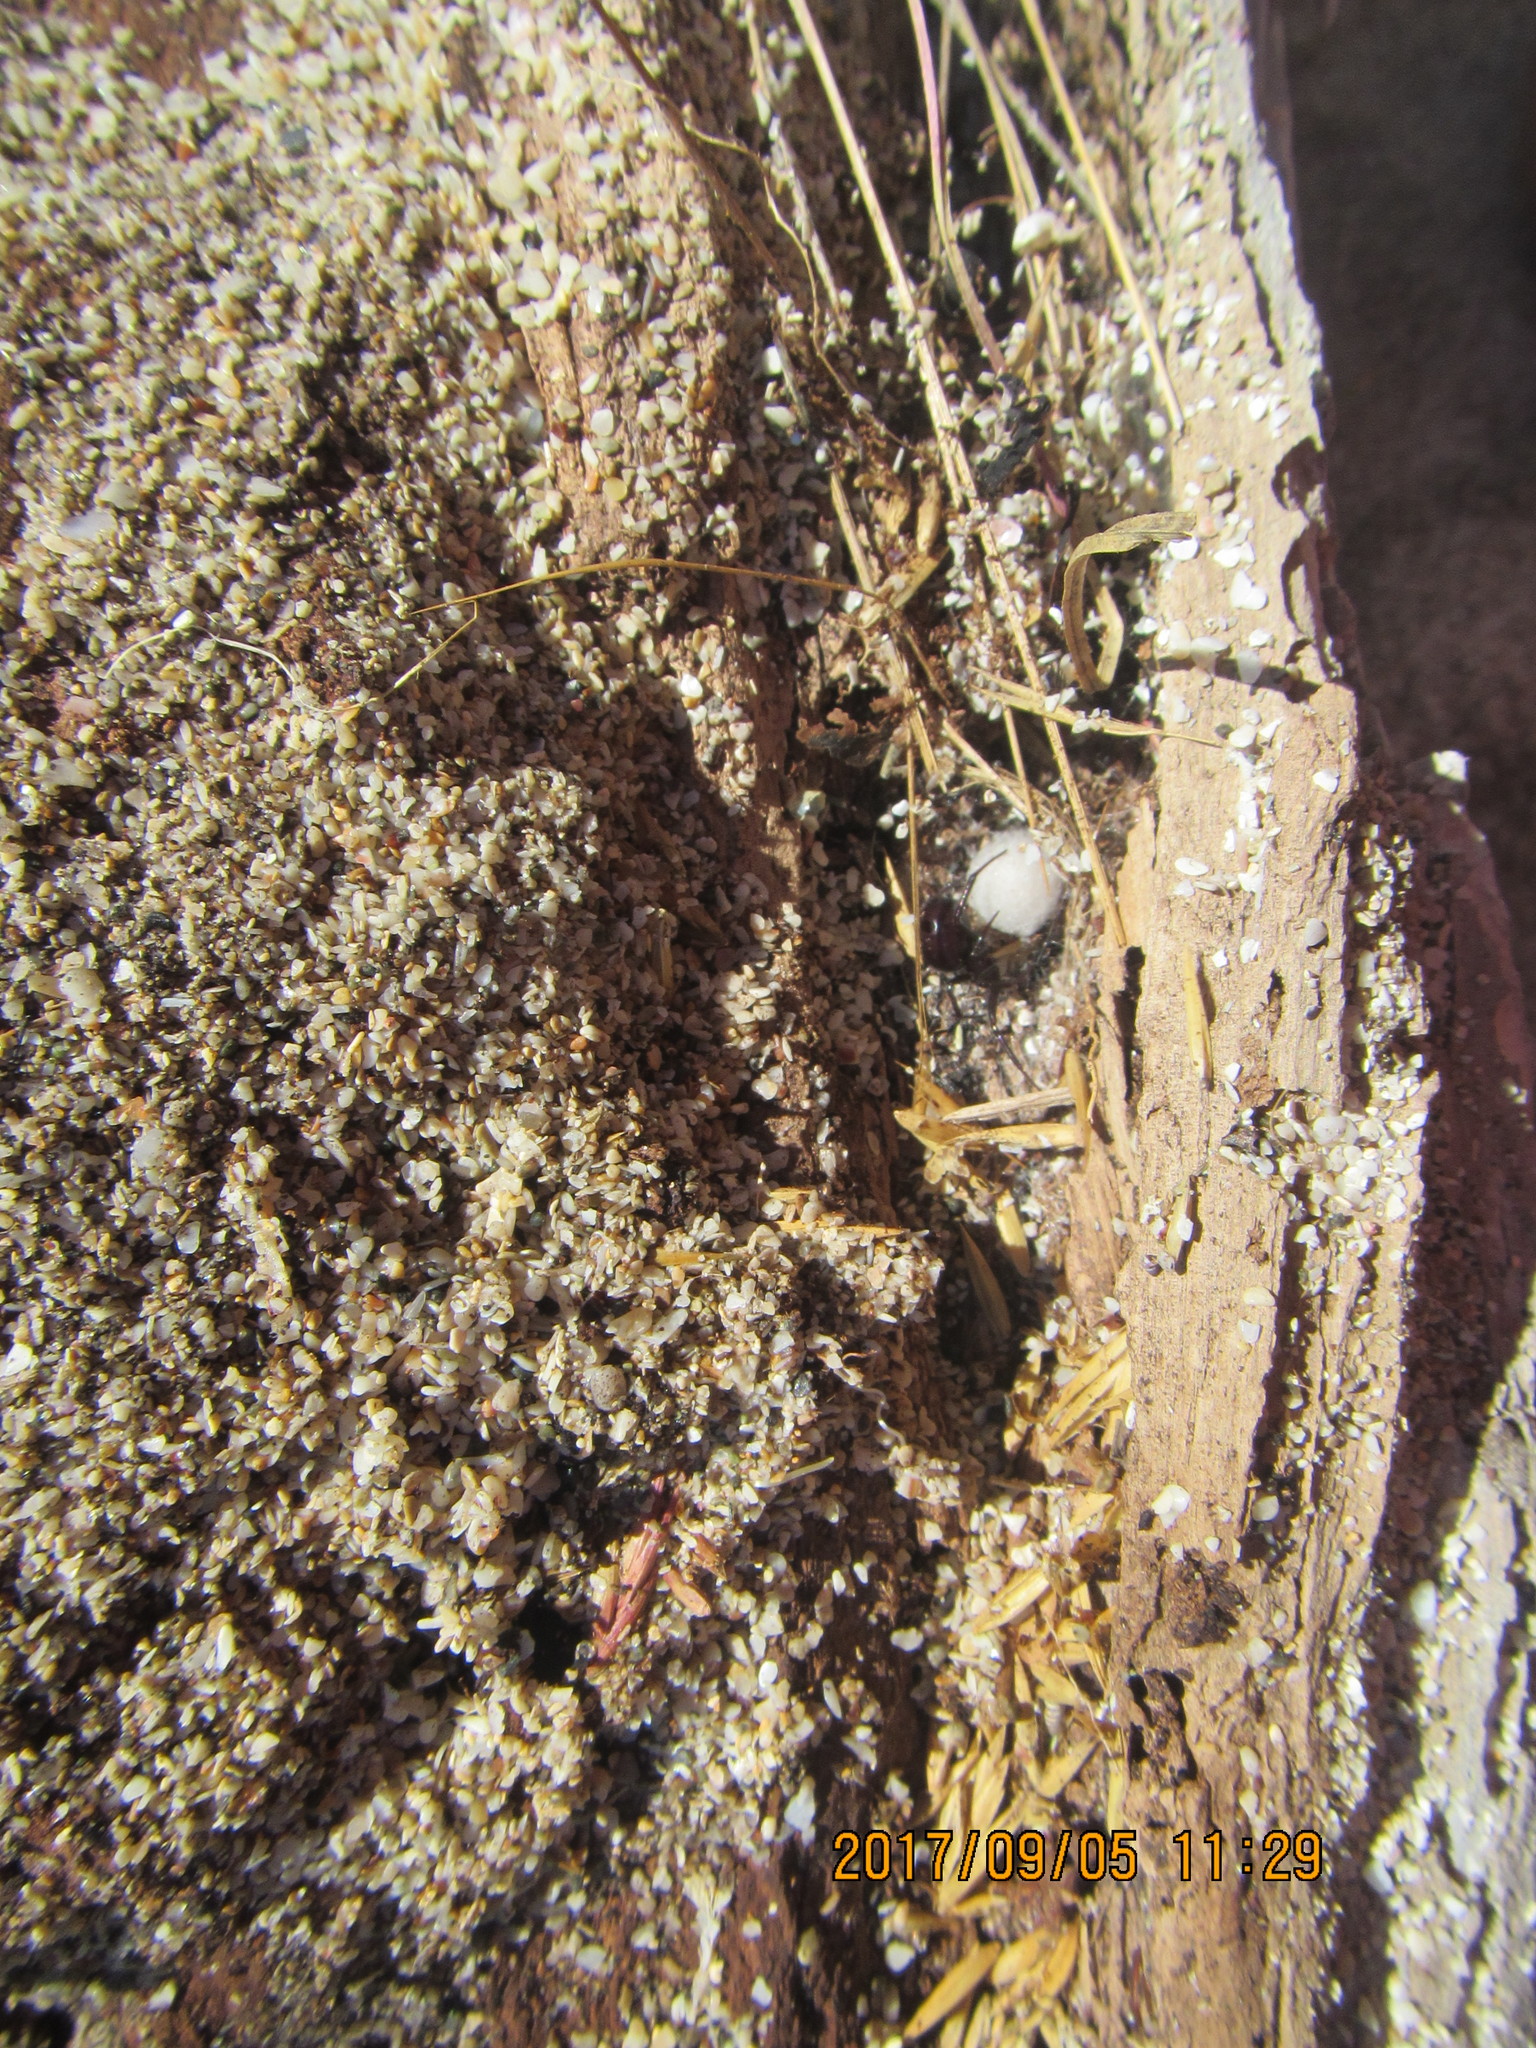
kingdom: Animalia
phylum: Arthropoda
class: Arachnida
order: Araneae
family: Theridiidae
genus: Steatoda
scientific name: Steatoda capensis
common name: Cobweb weaver
